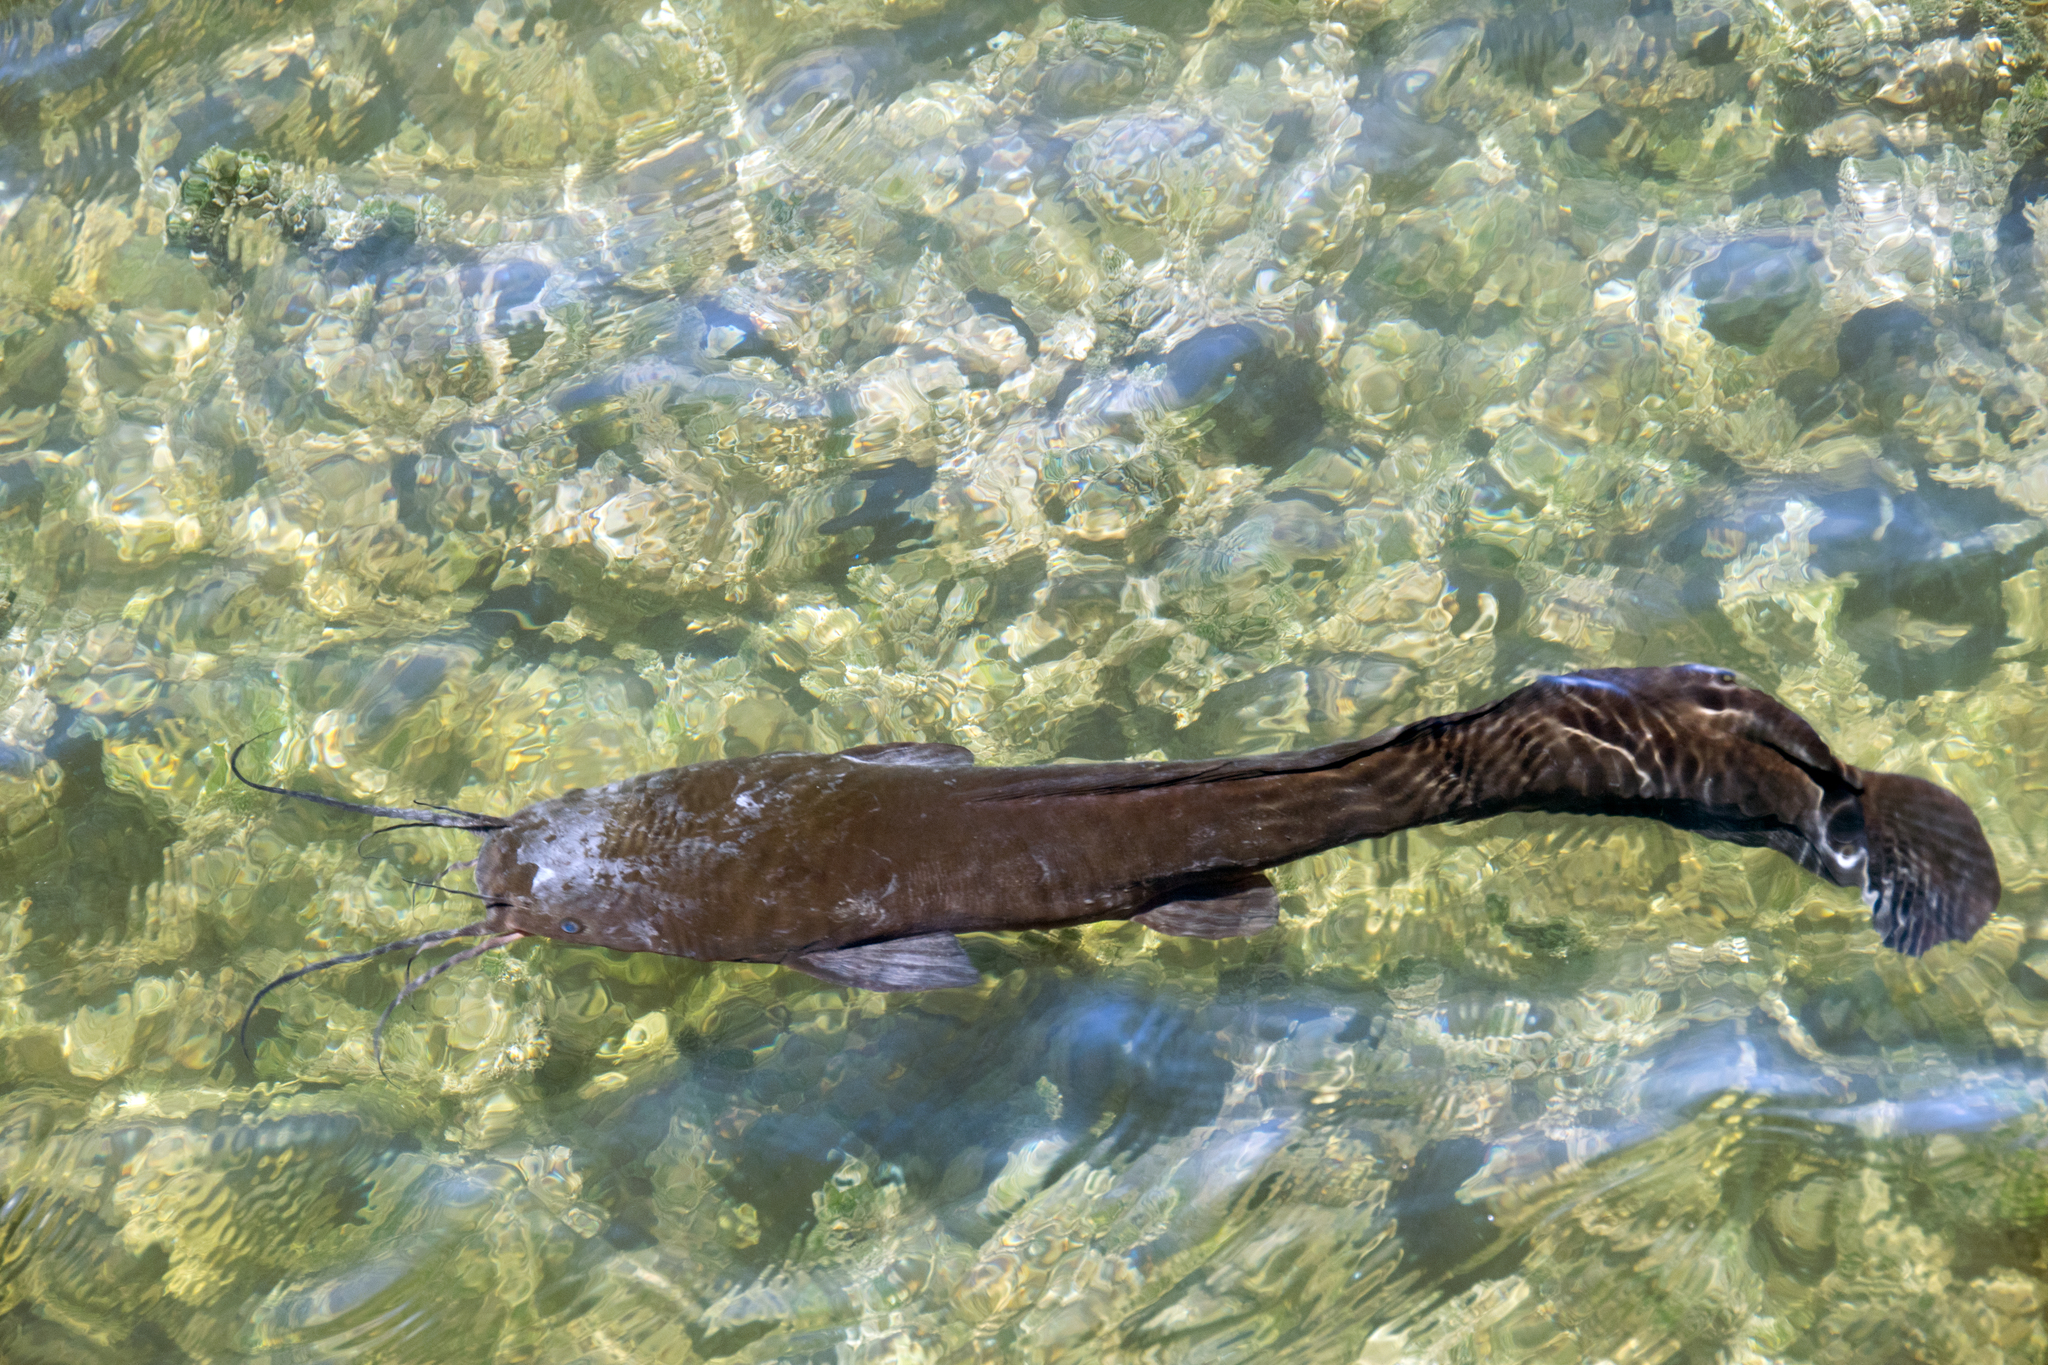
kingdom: Animalia
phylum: Chordata
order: Siluriformes
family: Clariidae
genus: Clarias
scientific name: Clarias gariepinus
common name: African catfish
